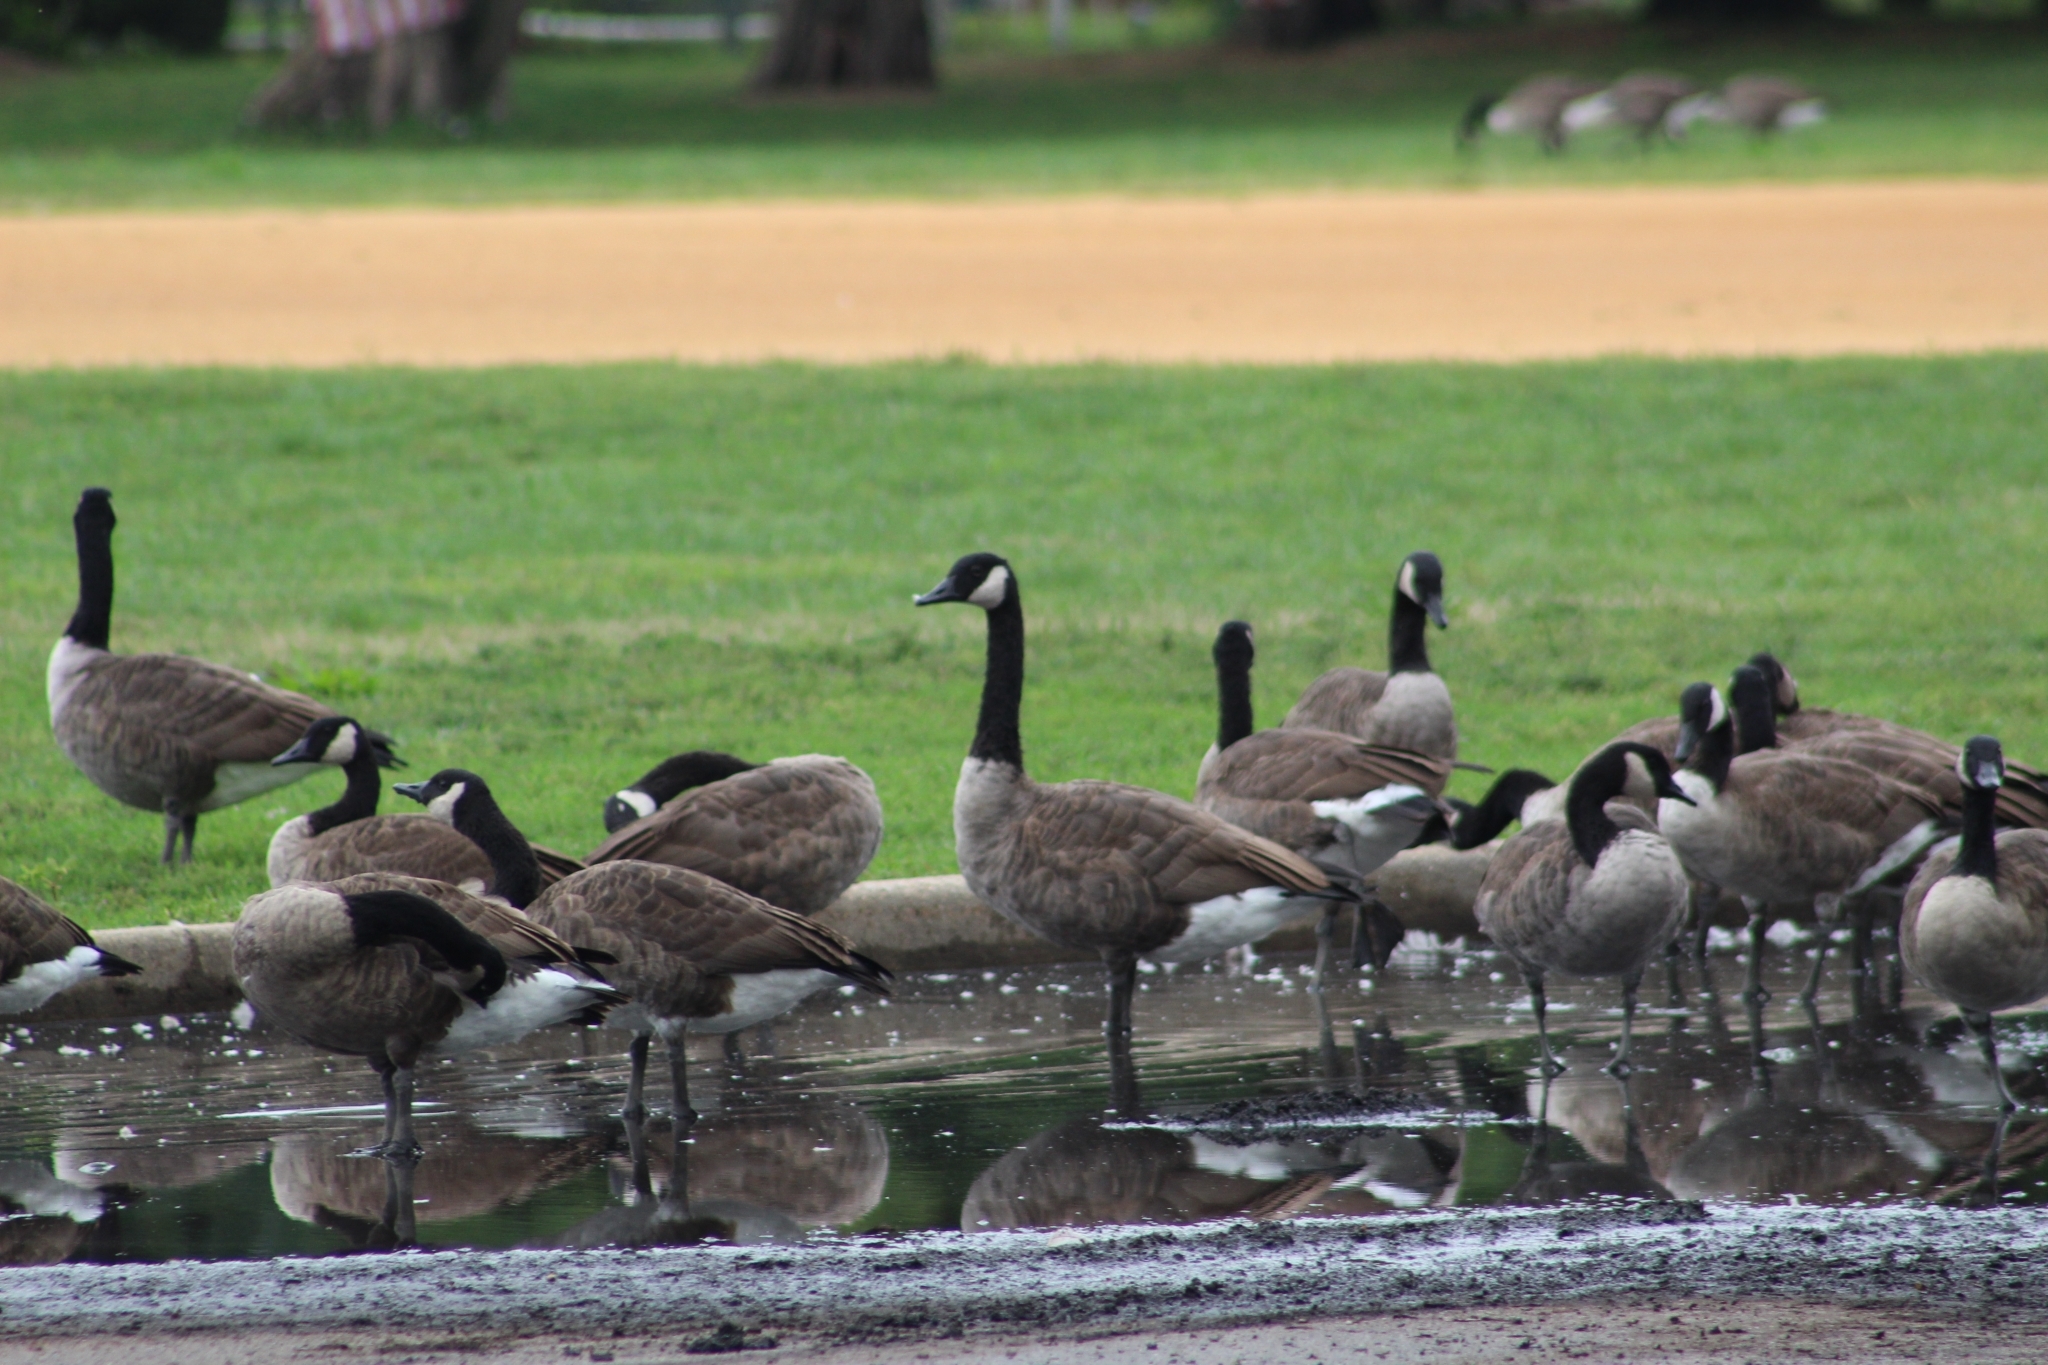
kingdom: Animalia
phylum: Chordata
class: Aves
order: Anseriformes
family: Anatidae
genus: Branta
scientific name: Branta canadensis
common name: Canada goose
